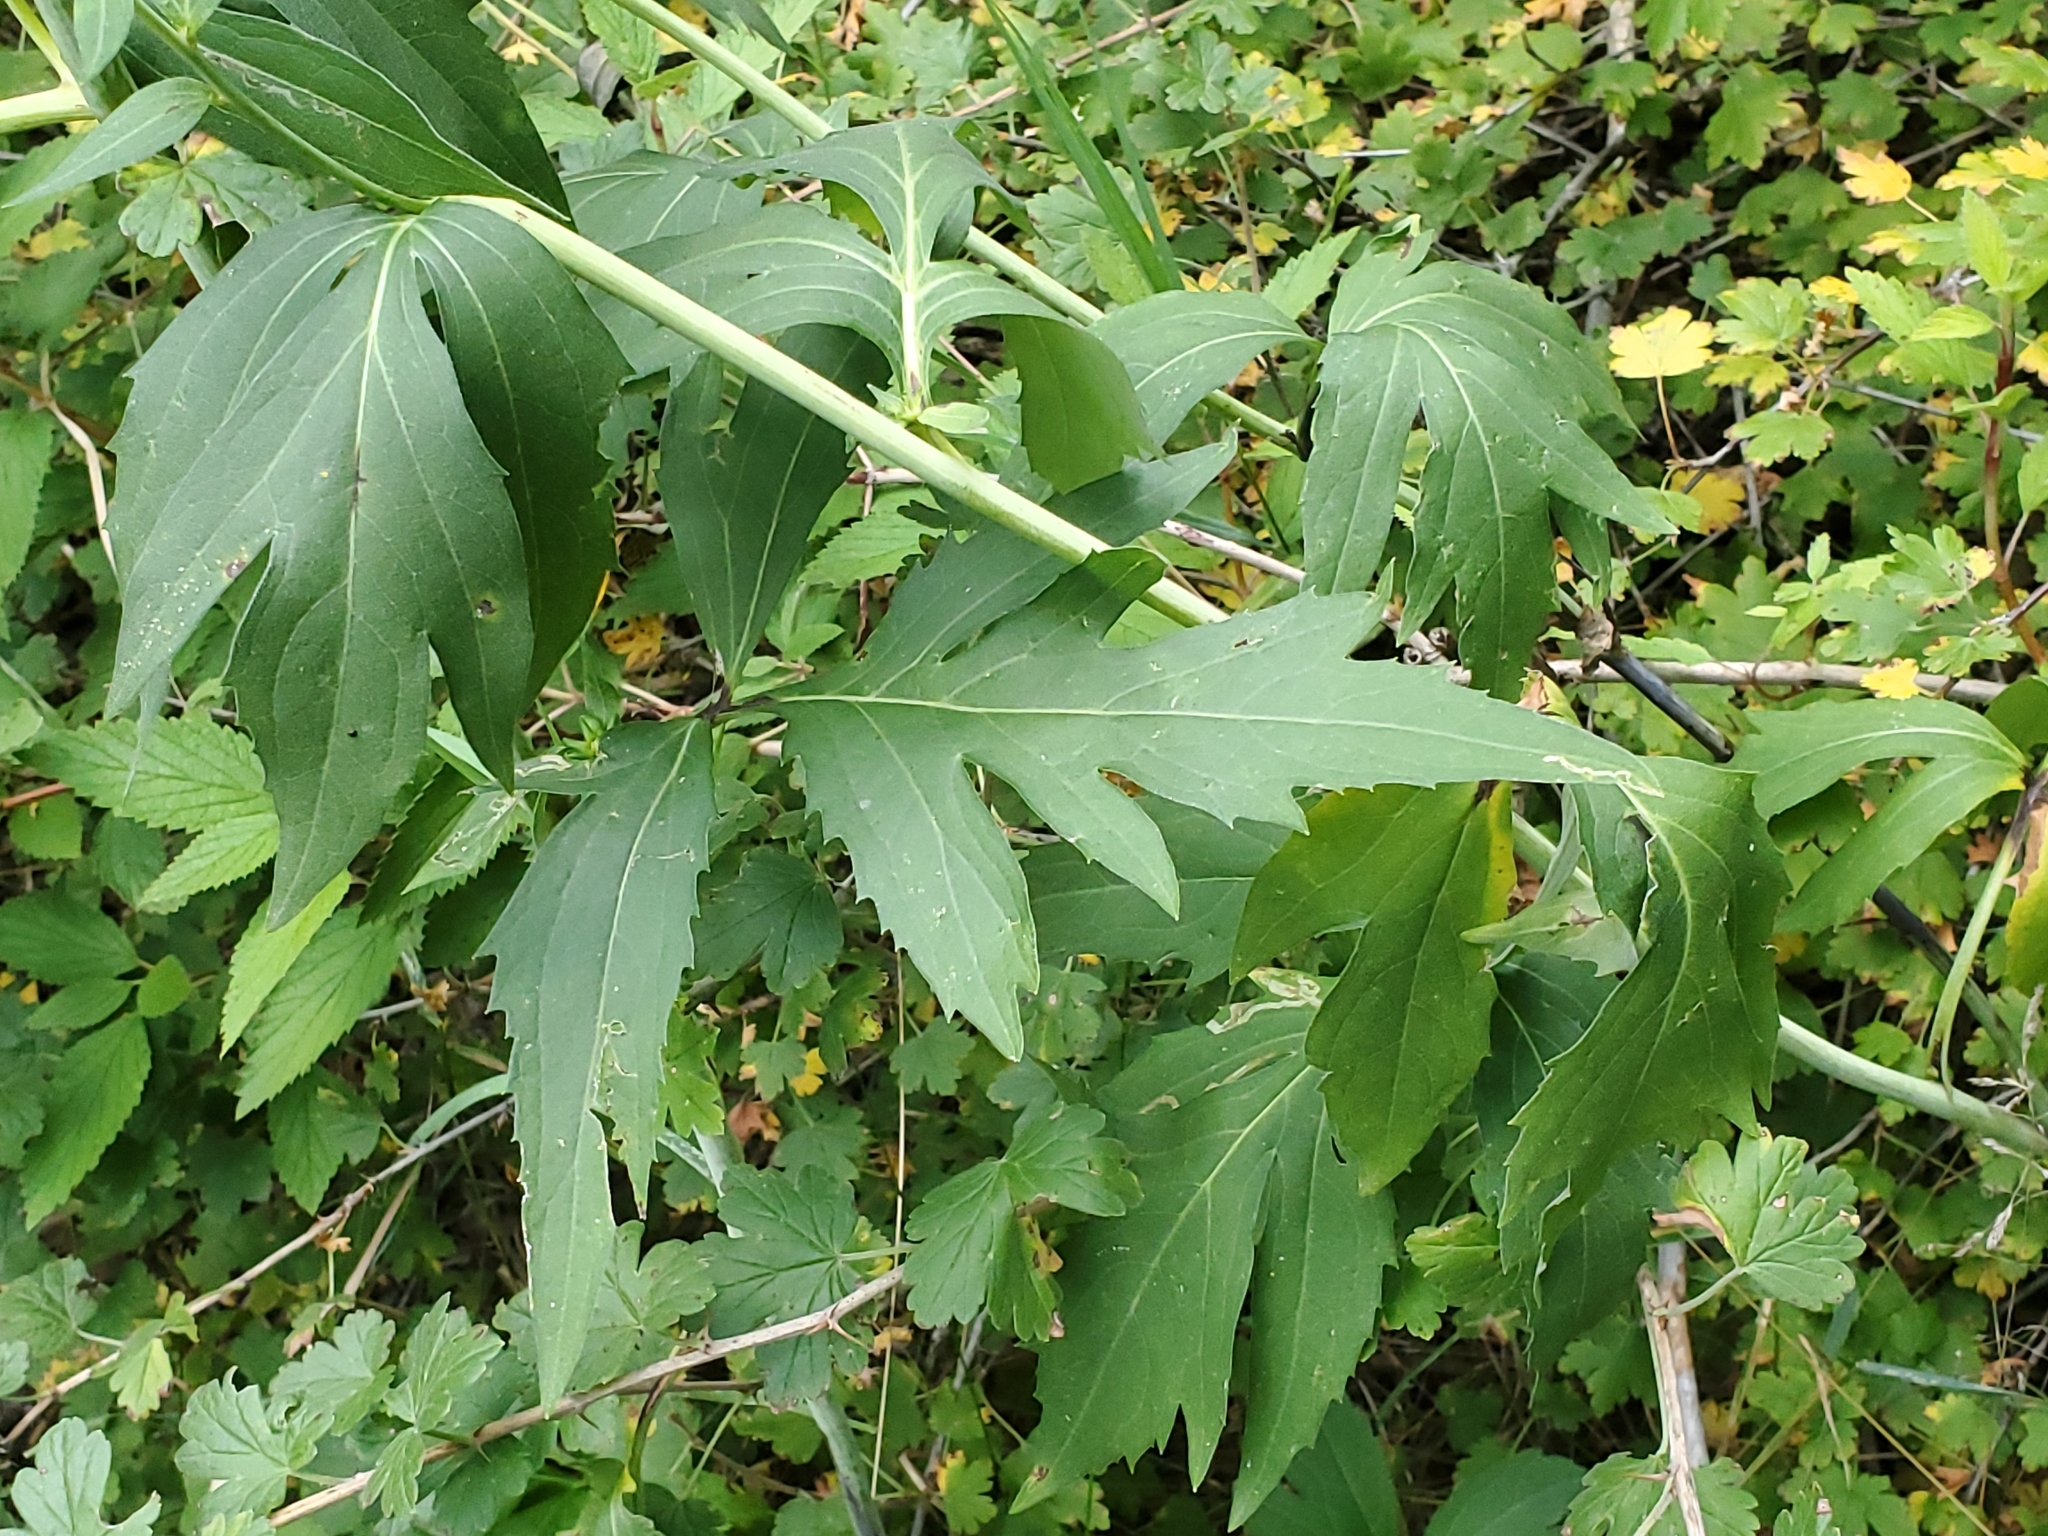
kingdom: Plantae
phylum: Tracheophyta
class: Magnoliopsida
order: Asterales
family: Asteraceae
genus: Rudbeckia
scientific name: Rudbeckia laciniata
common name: Coneflower
